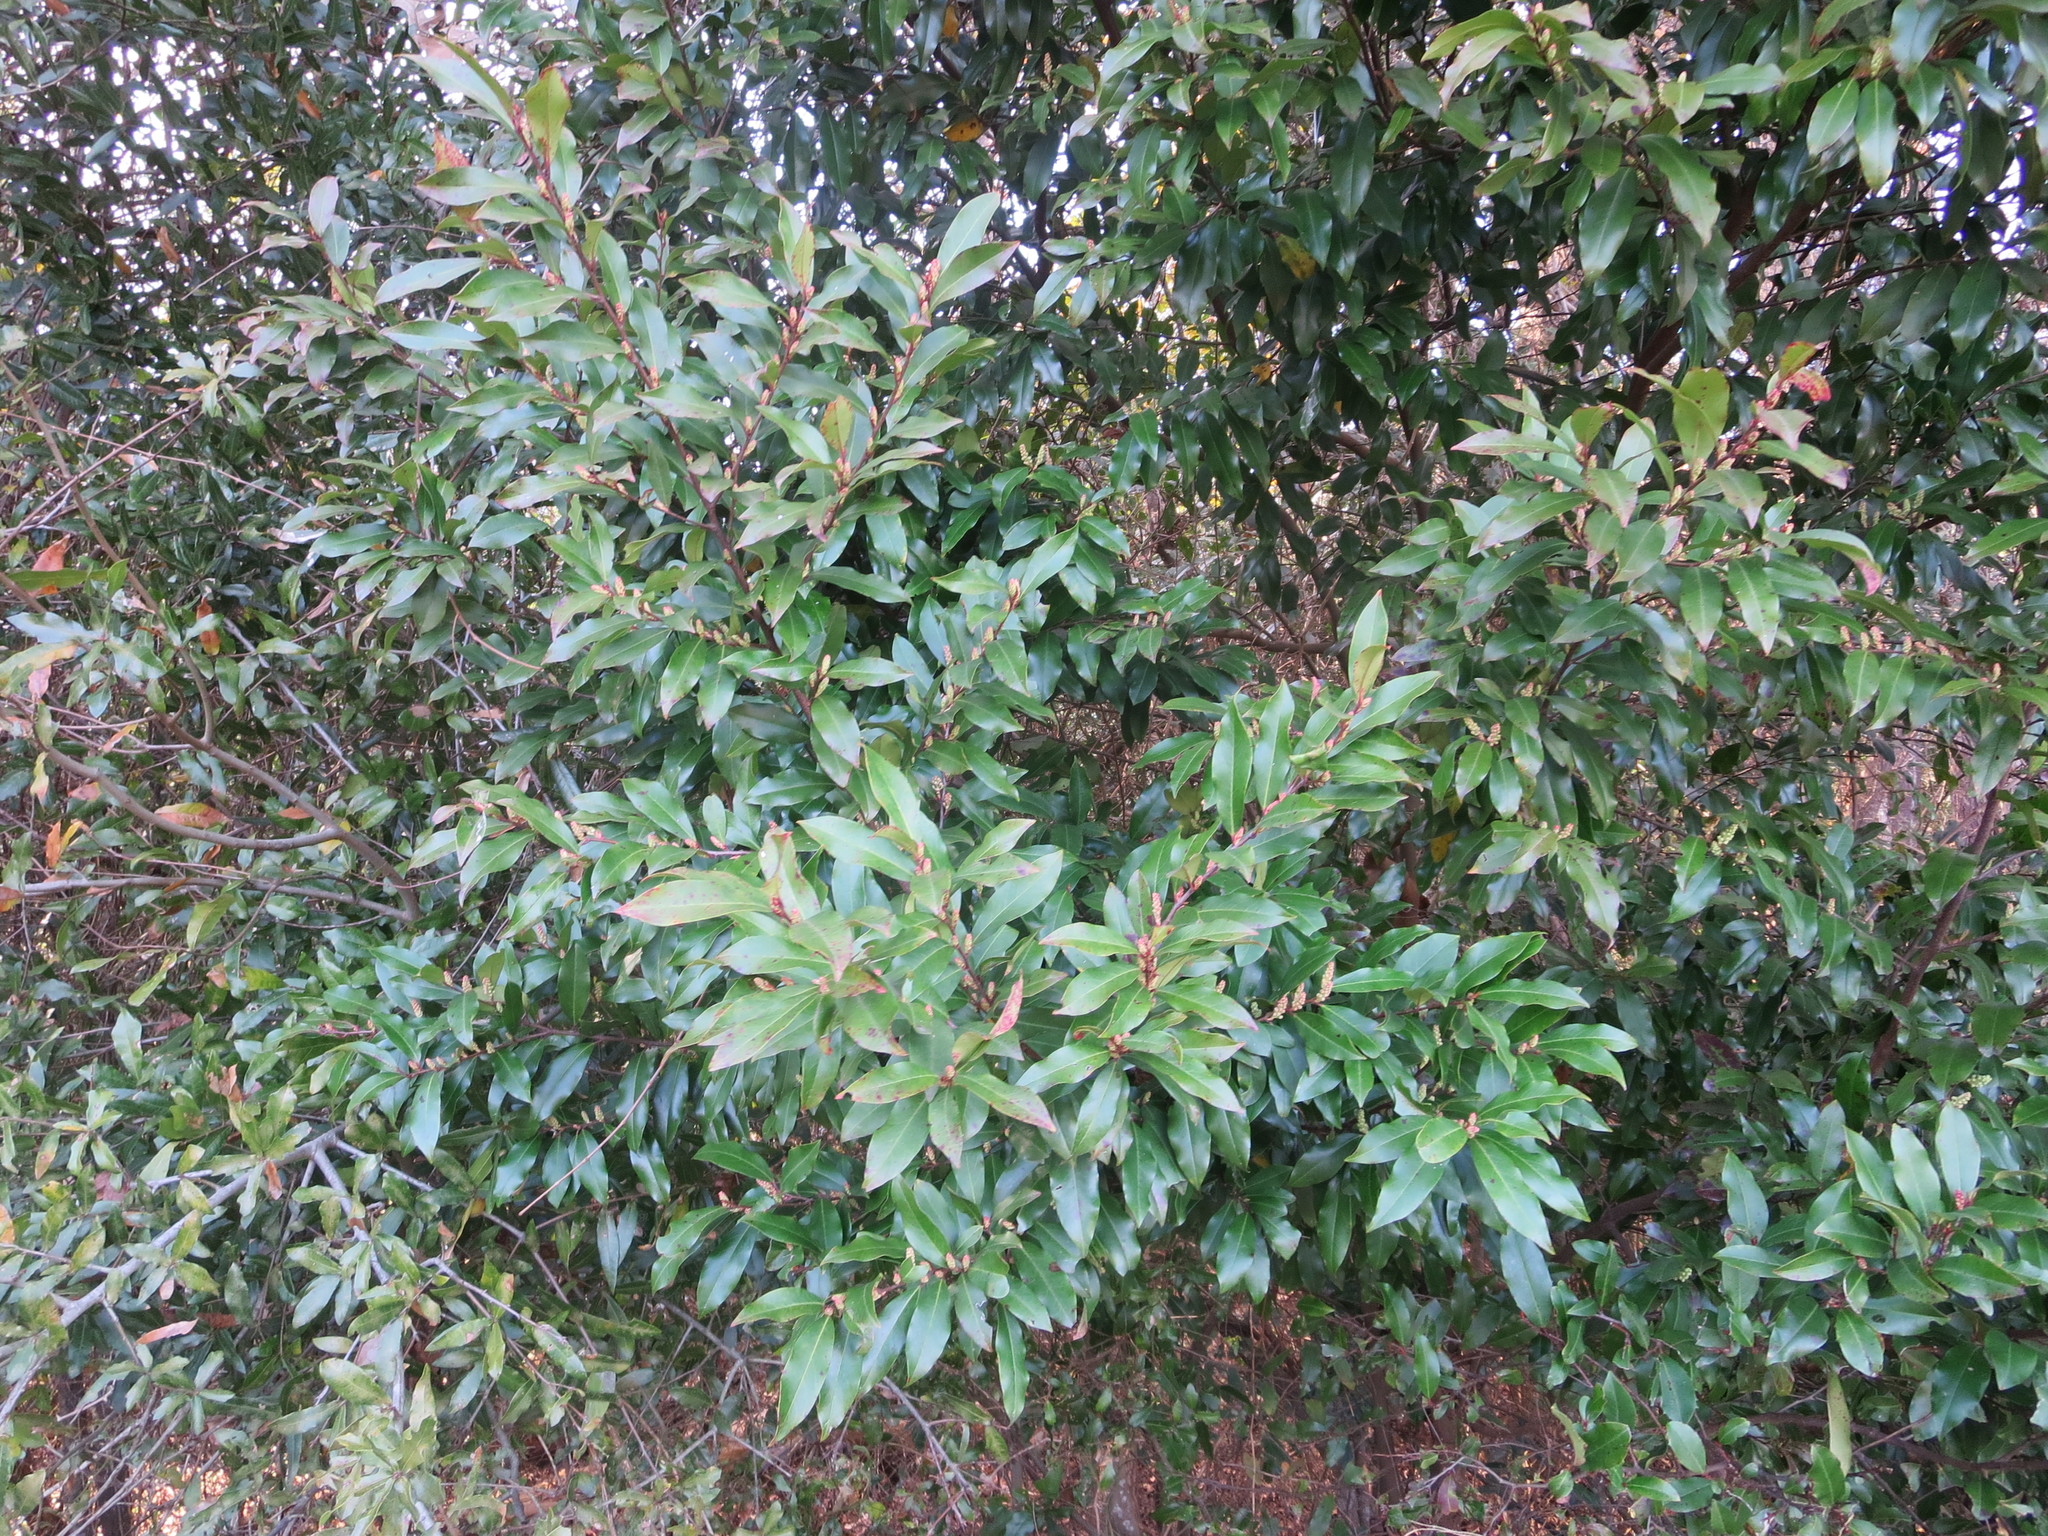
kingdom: Plantae
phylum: Tracheophyta
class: Magnoliopsida
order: Rosales
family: Rosaceae
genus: Prunus
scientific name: Prunus caroliniana
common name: Carolina laurel cherry
